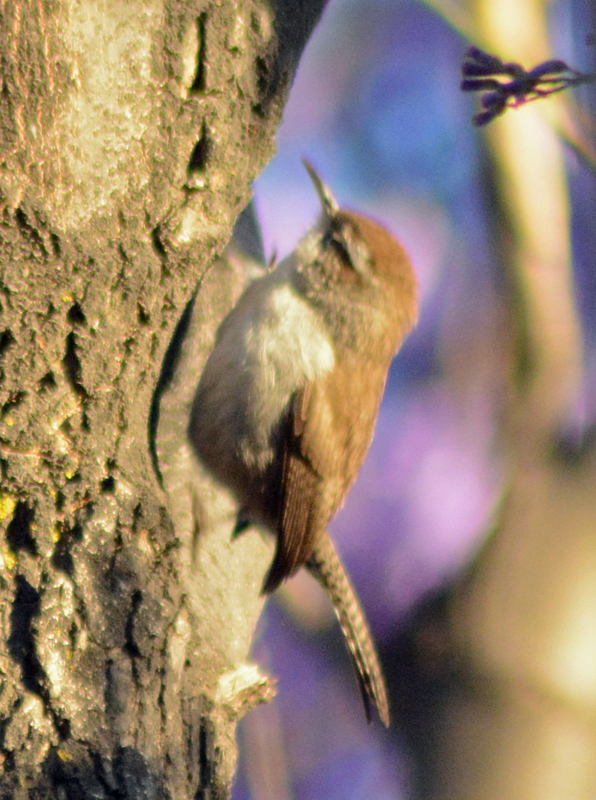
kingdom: Animalia
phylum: Chordata
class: Aves
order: Passeriformes
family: Troglodytidae
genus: Thryomanes
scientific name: Thryomanes bewickii
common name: Bewick's wren
